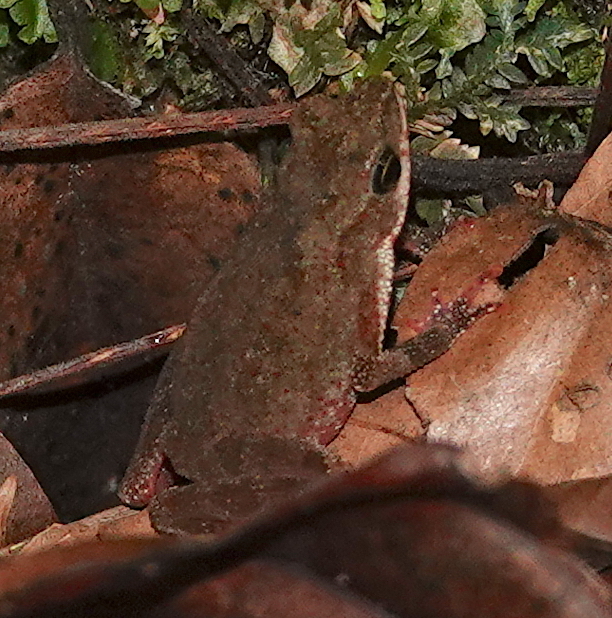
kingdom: Animalia
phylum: Chordata
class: Amphibia
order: Anura
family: Bufonidae
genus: Amazophrynella
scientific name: Amazophrynella siona
